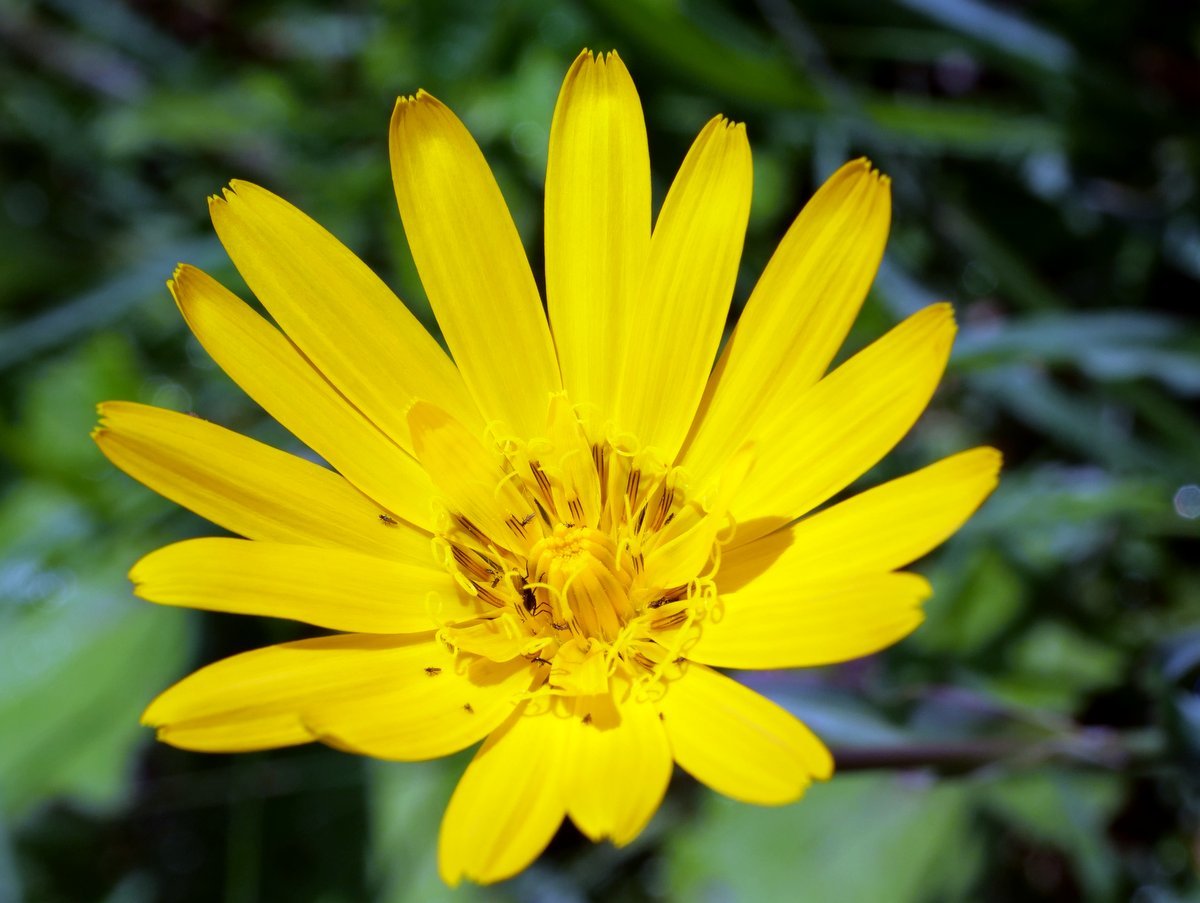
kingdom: Plantae
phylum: Tracheophyta
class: Magnoliopsida
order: Asterales
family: Asteraceae
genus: Tragopogon
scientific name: Tragopogon orientalis
